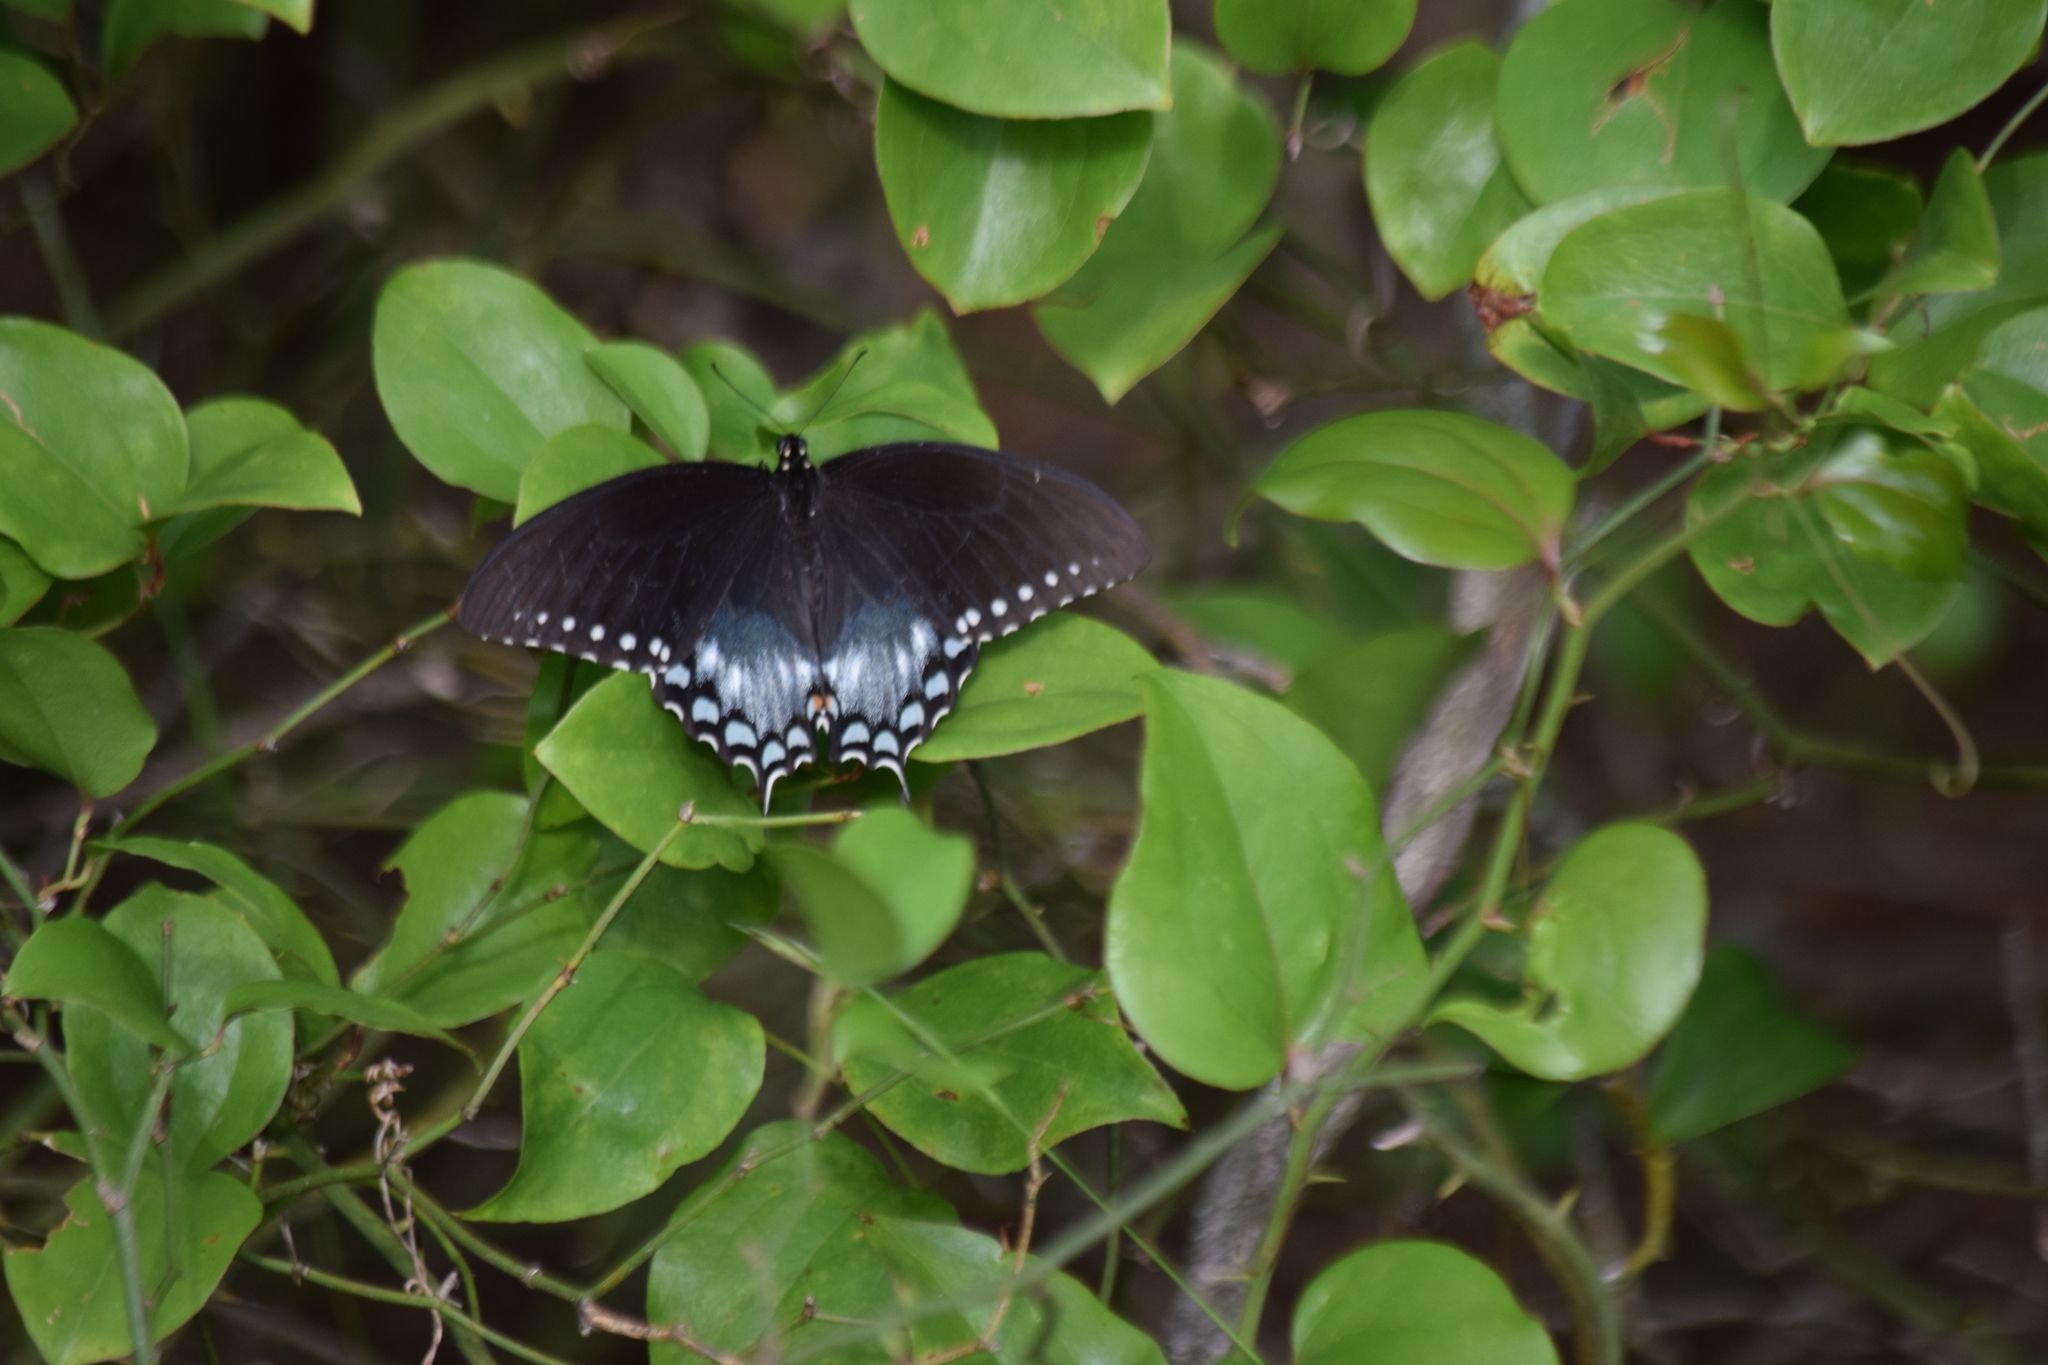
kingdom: Animalia
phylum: Arthropoda
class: Insecta
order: Lepidoptera
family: Papilionidae
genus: Papilio
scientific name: Papilio troilus
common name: Spicebush swallowtail
